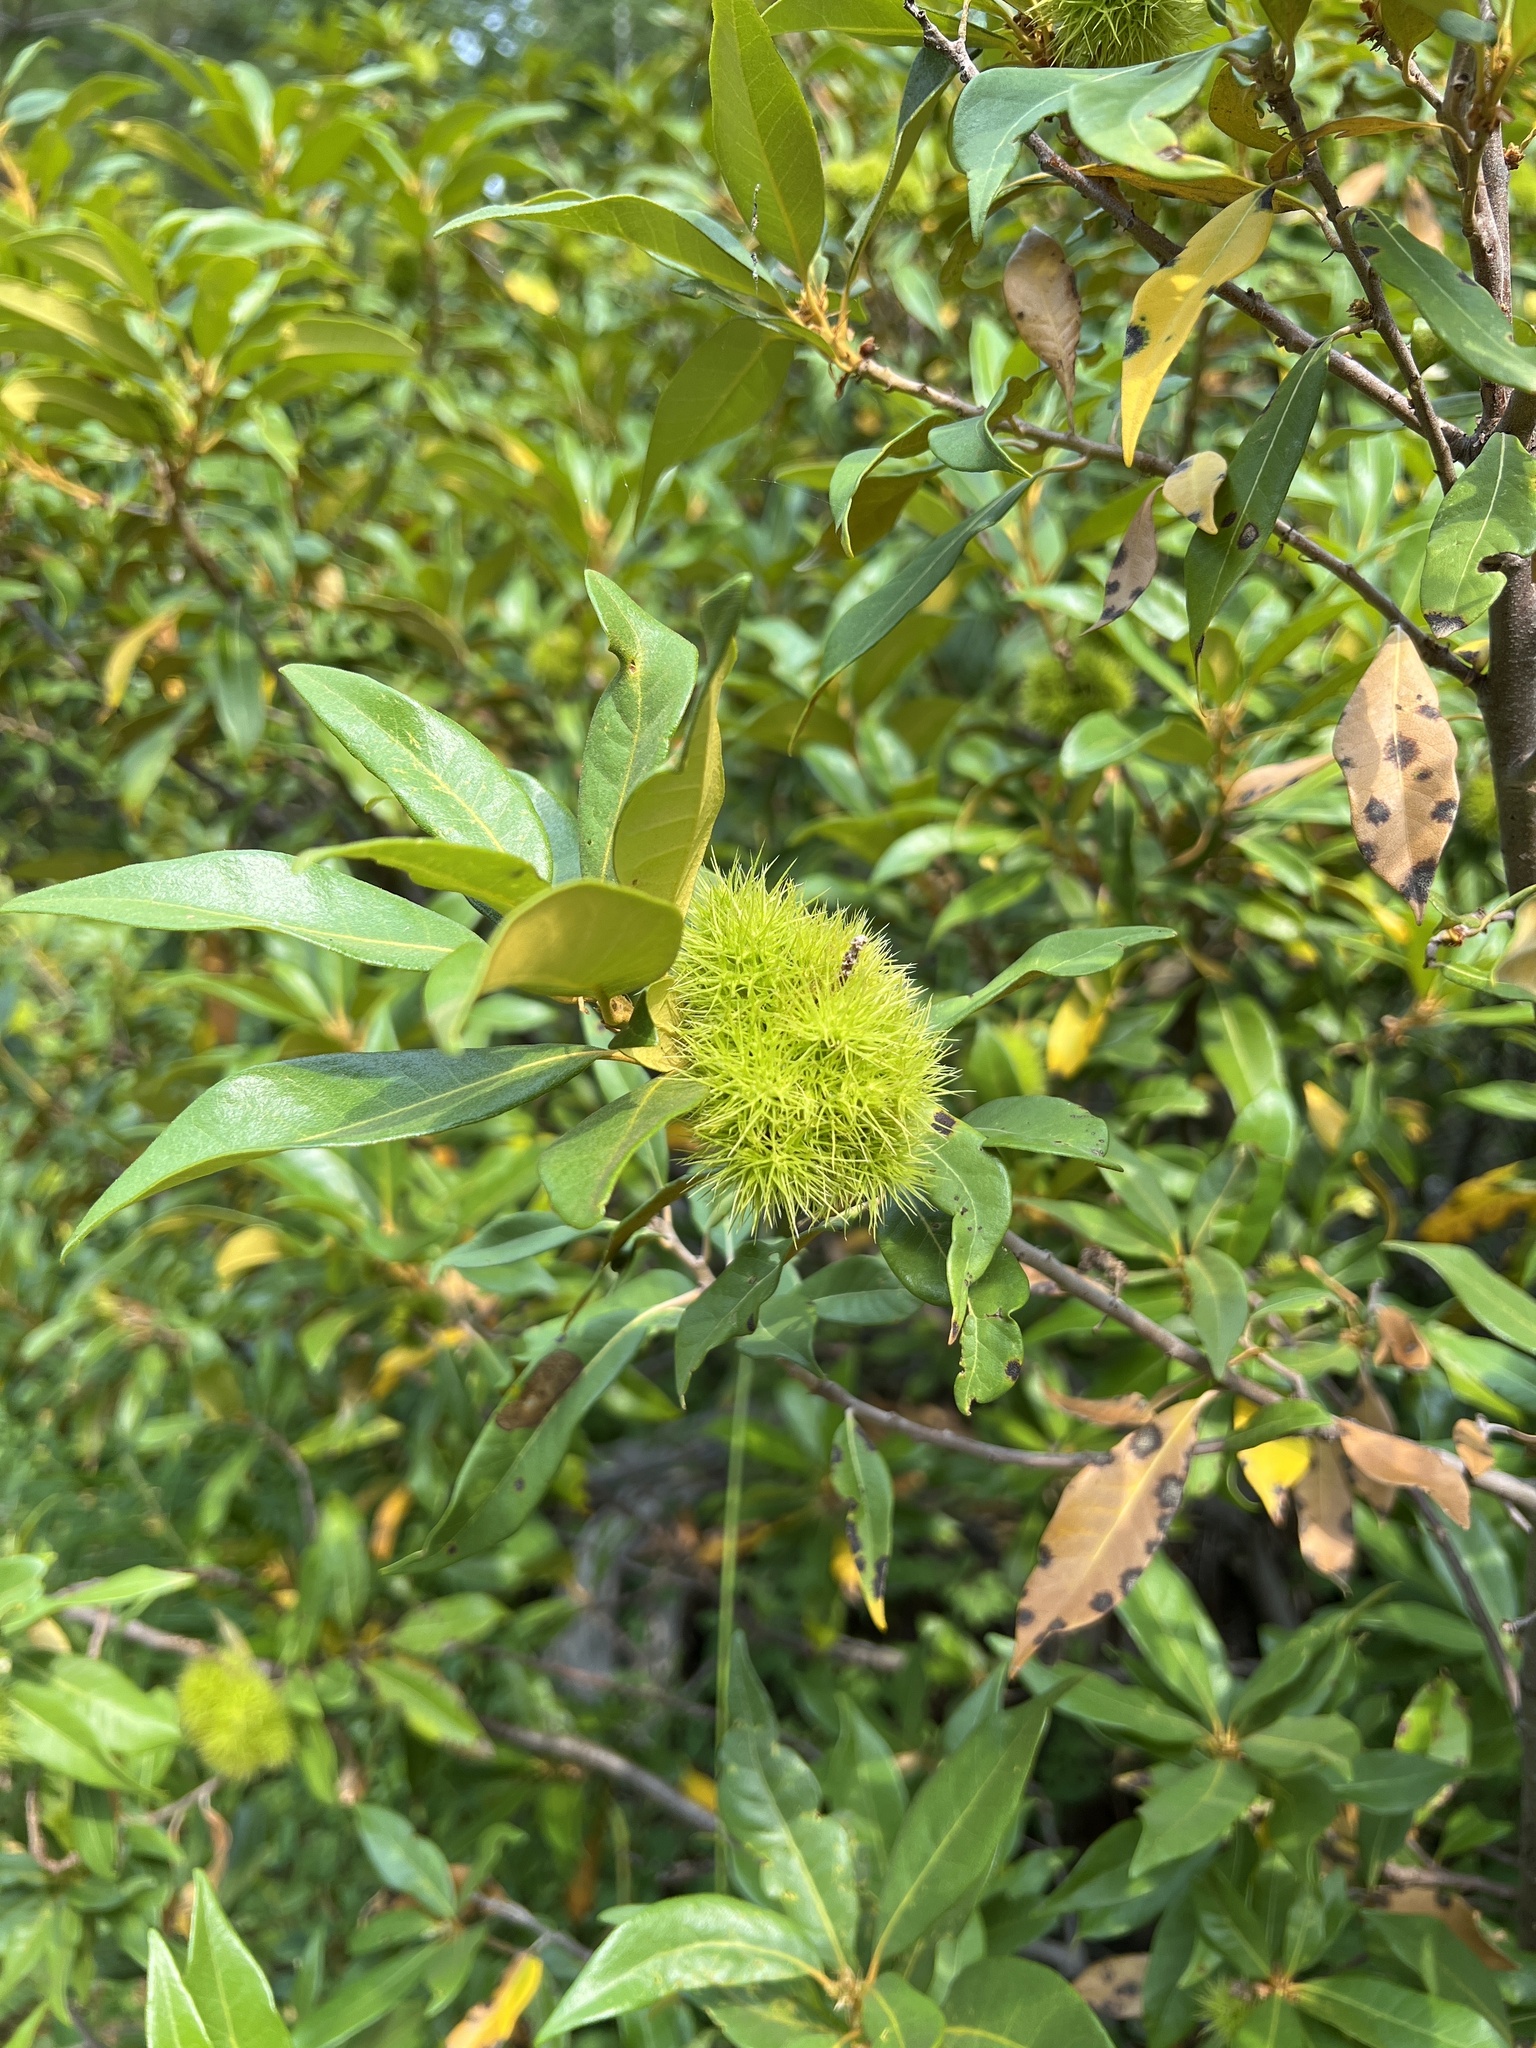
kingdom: Plantae
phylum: Tracheophyta
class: Magnoliopsida
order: Fagales
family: Fagaceae
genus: Chrysolepis
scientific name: Chrysolepis chrysophylla
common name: Giant chinquapin
